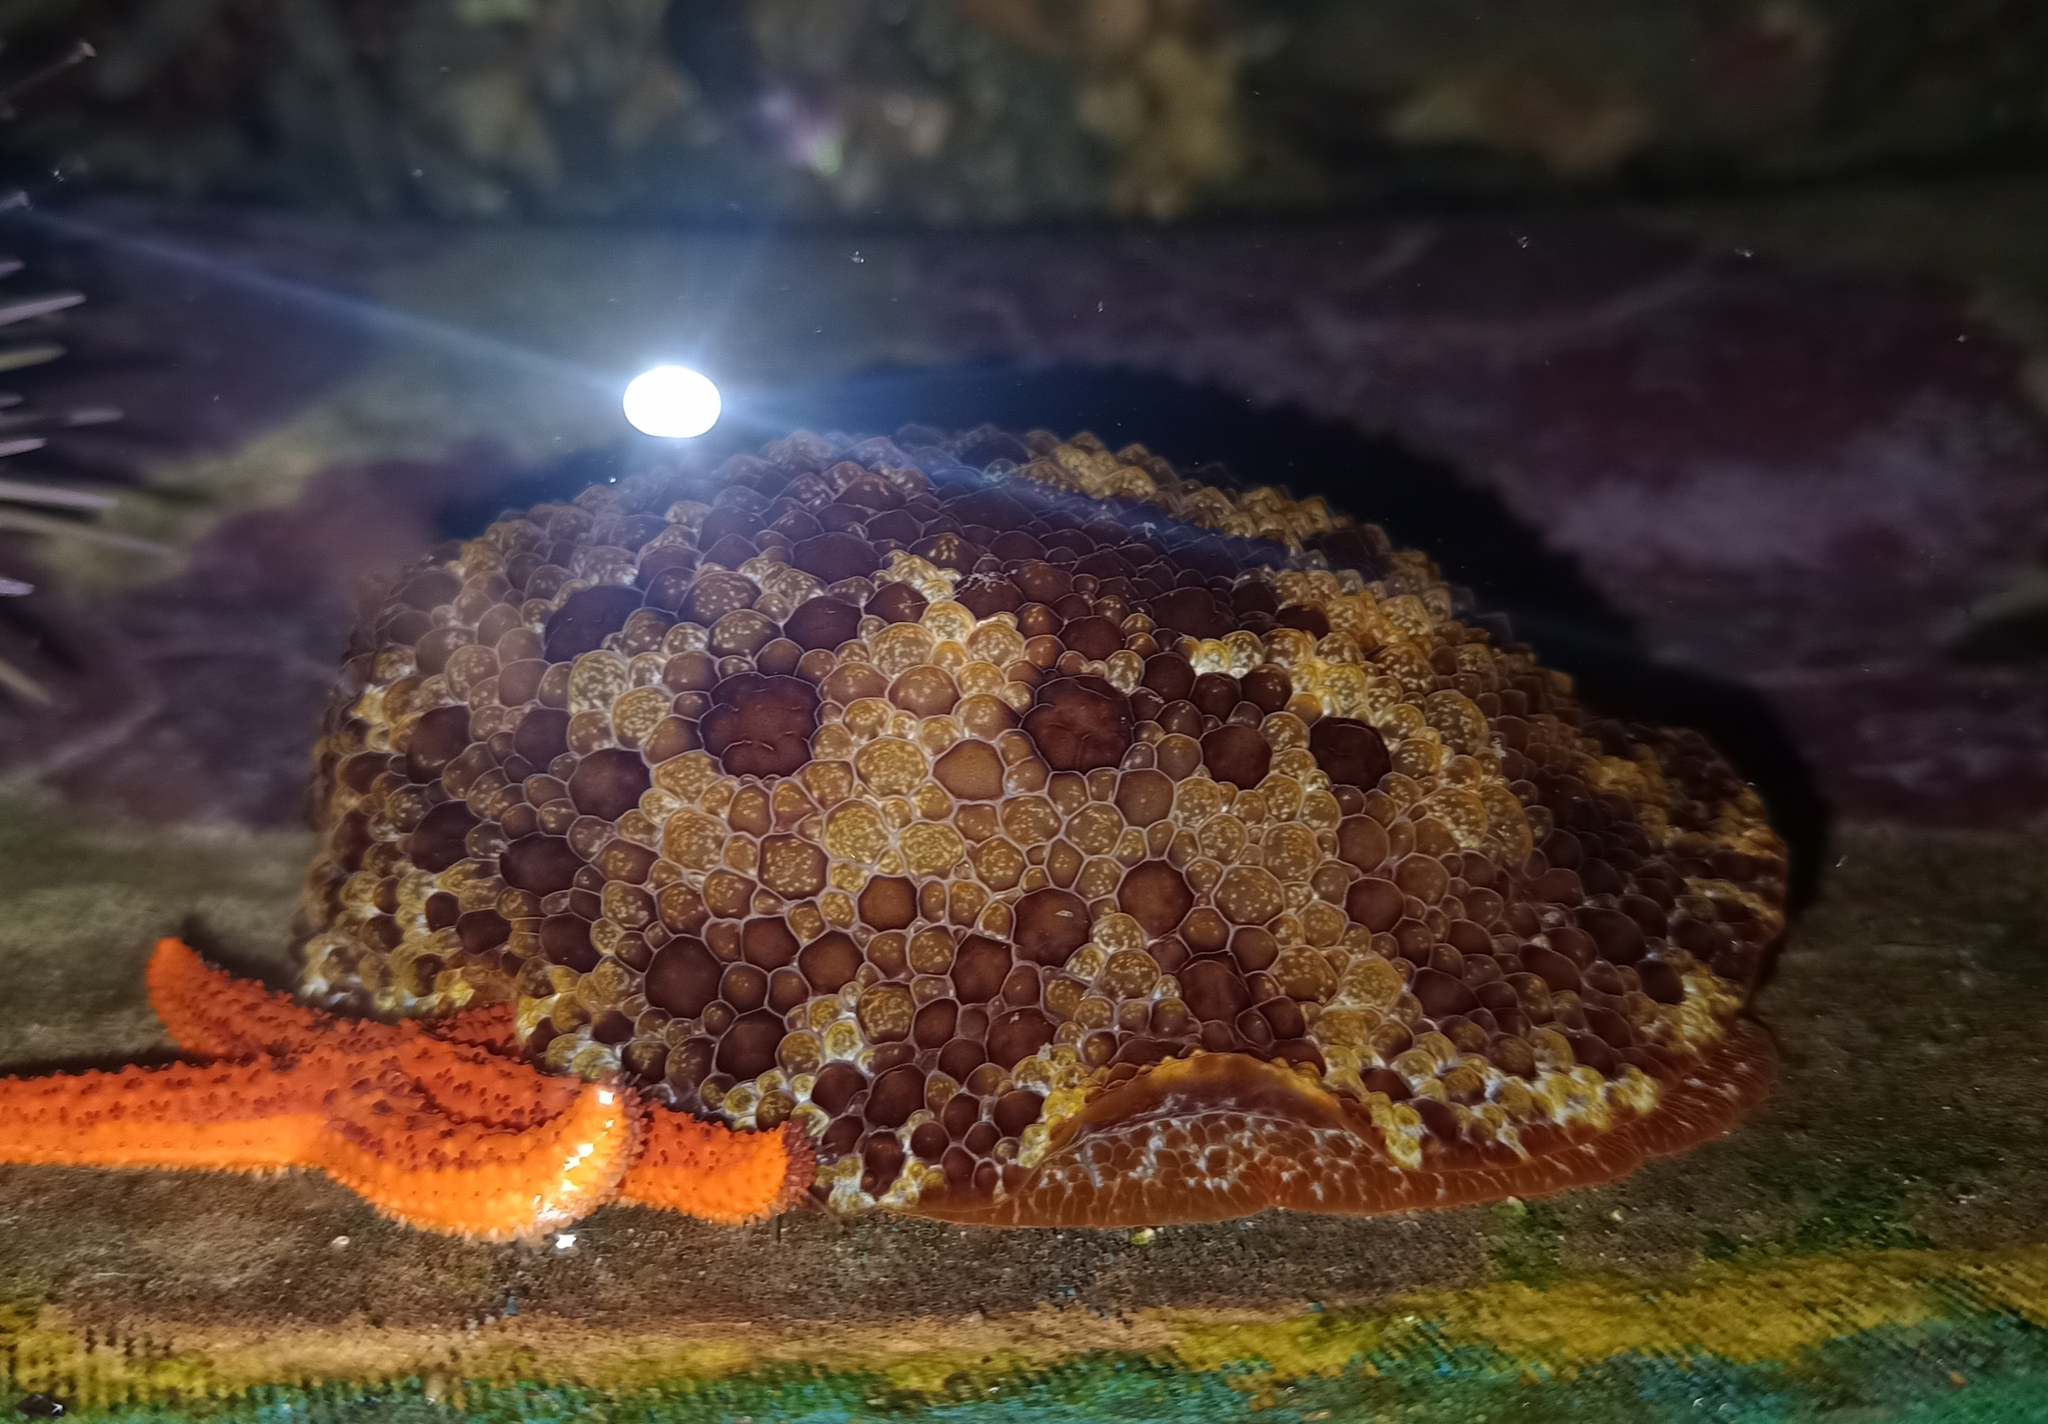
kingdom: Animalia
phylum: Mollusca
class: Gastropoda
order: Pleurobranchida
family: Pleurobranchidae
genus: Pleurobranchus
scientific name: Pleurobranchus areolatus
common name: Atlantic sidegill slug
